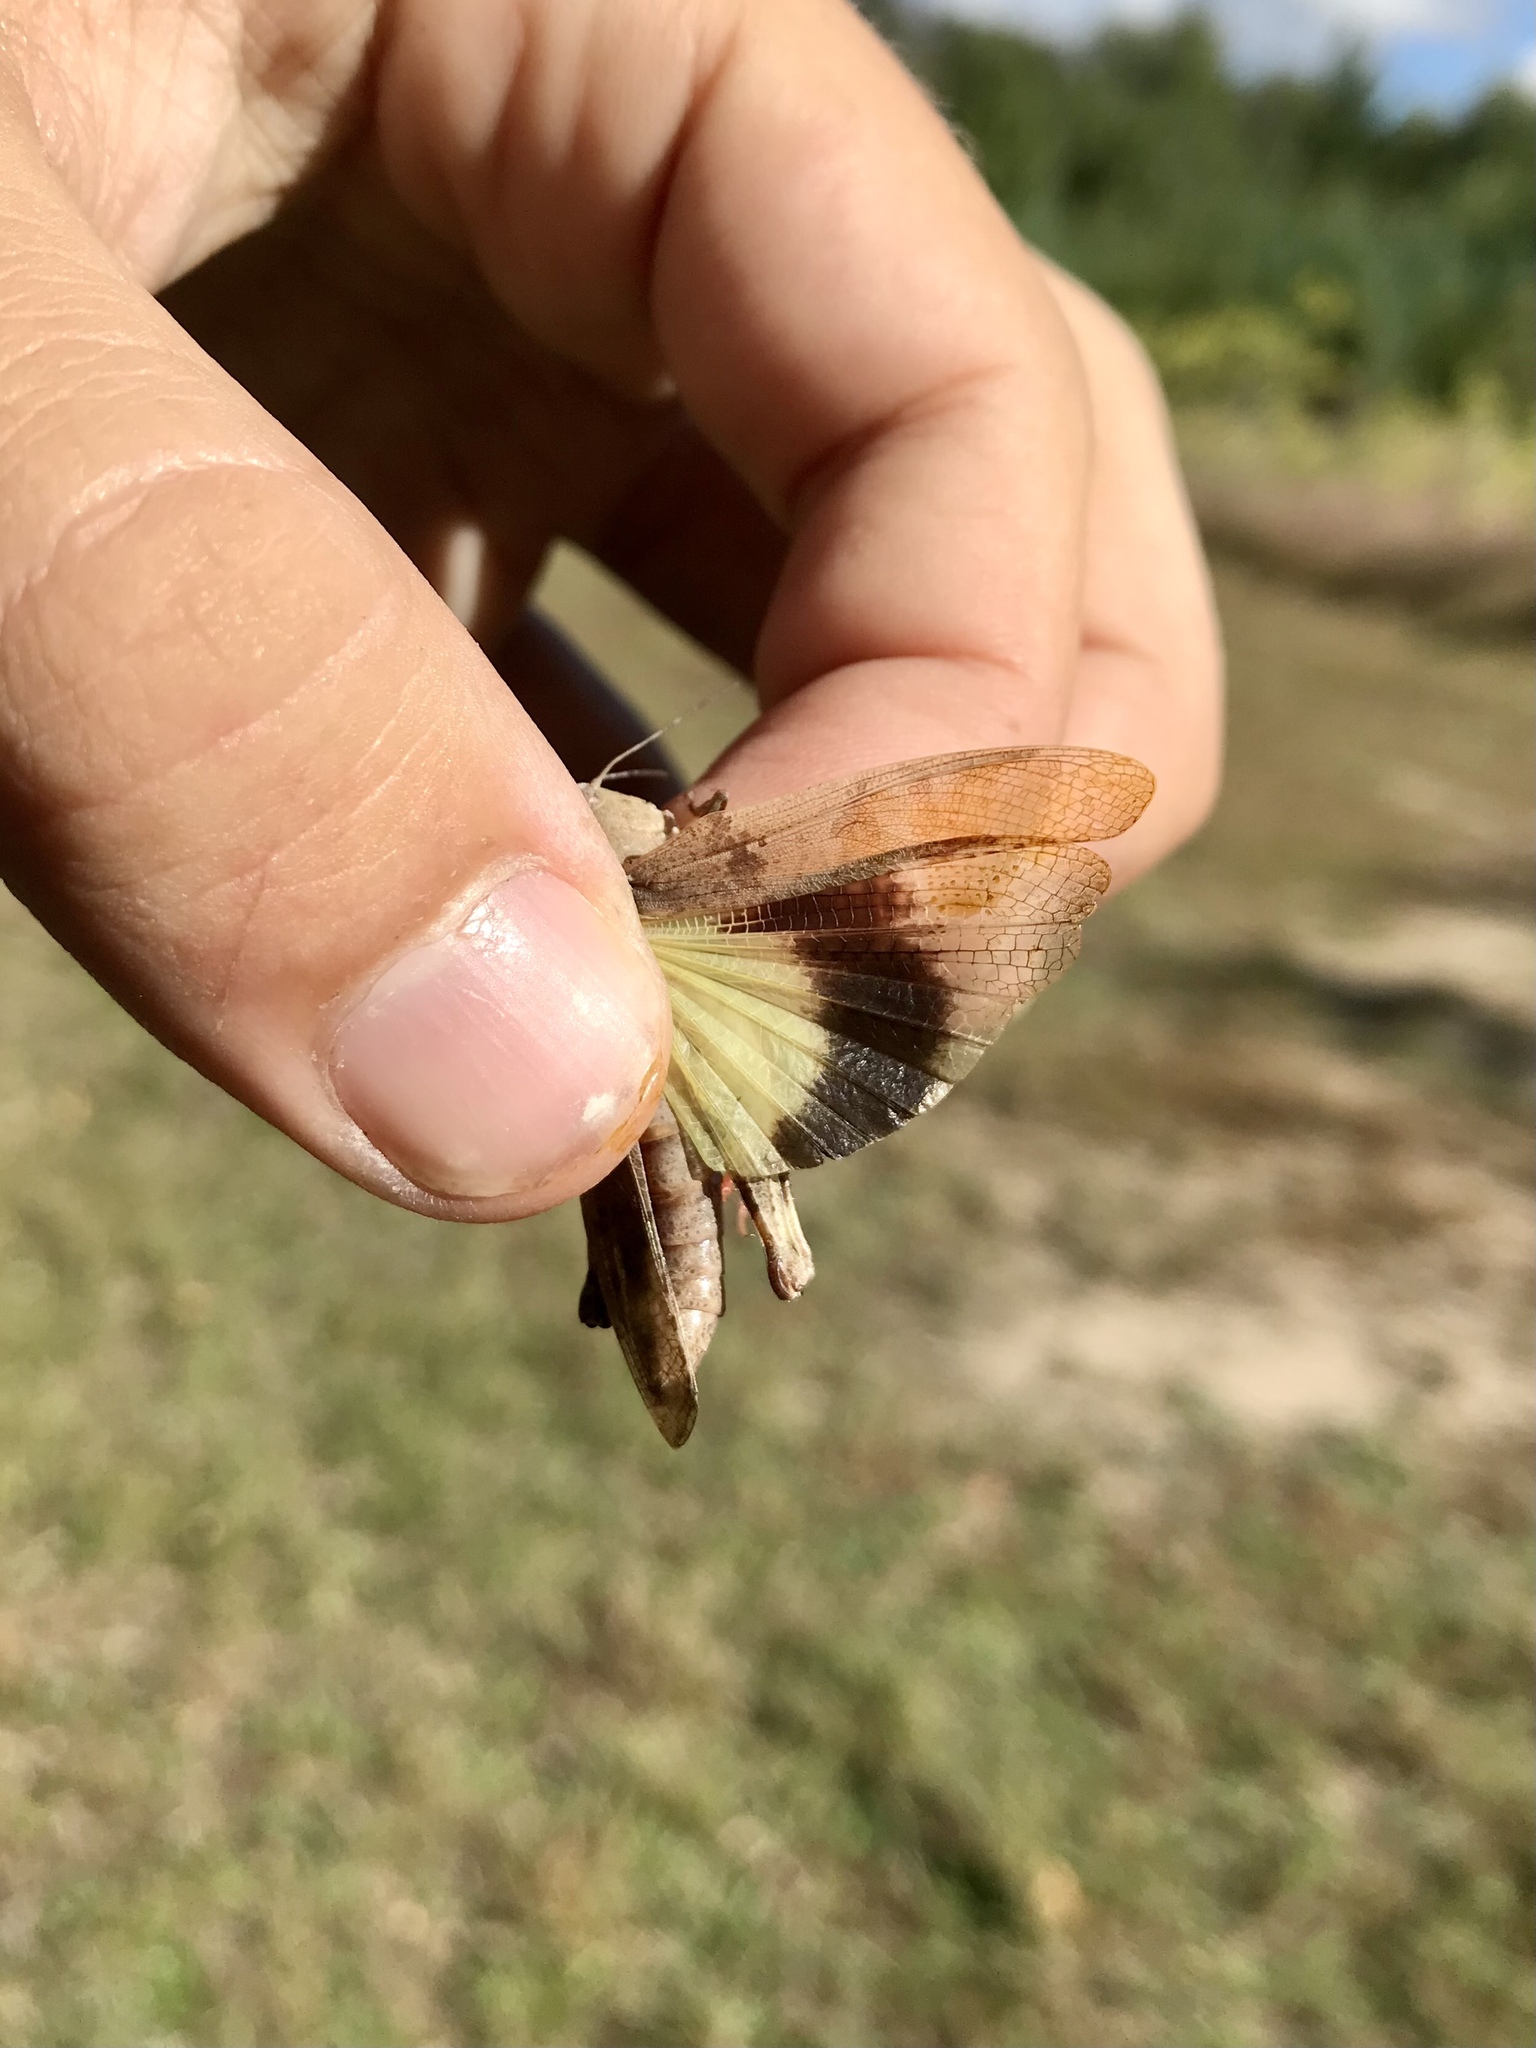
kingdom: Animalia
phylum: Arthropoda
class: Insecta
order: Orthoptera
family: Acrididae
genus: Spharagemon
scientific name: Spharagemon bolli
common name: Boll's grasshopper
